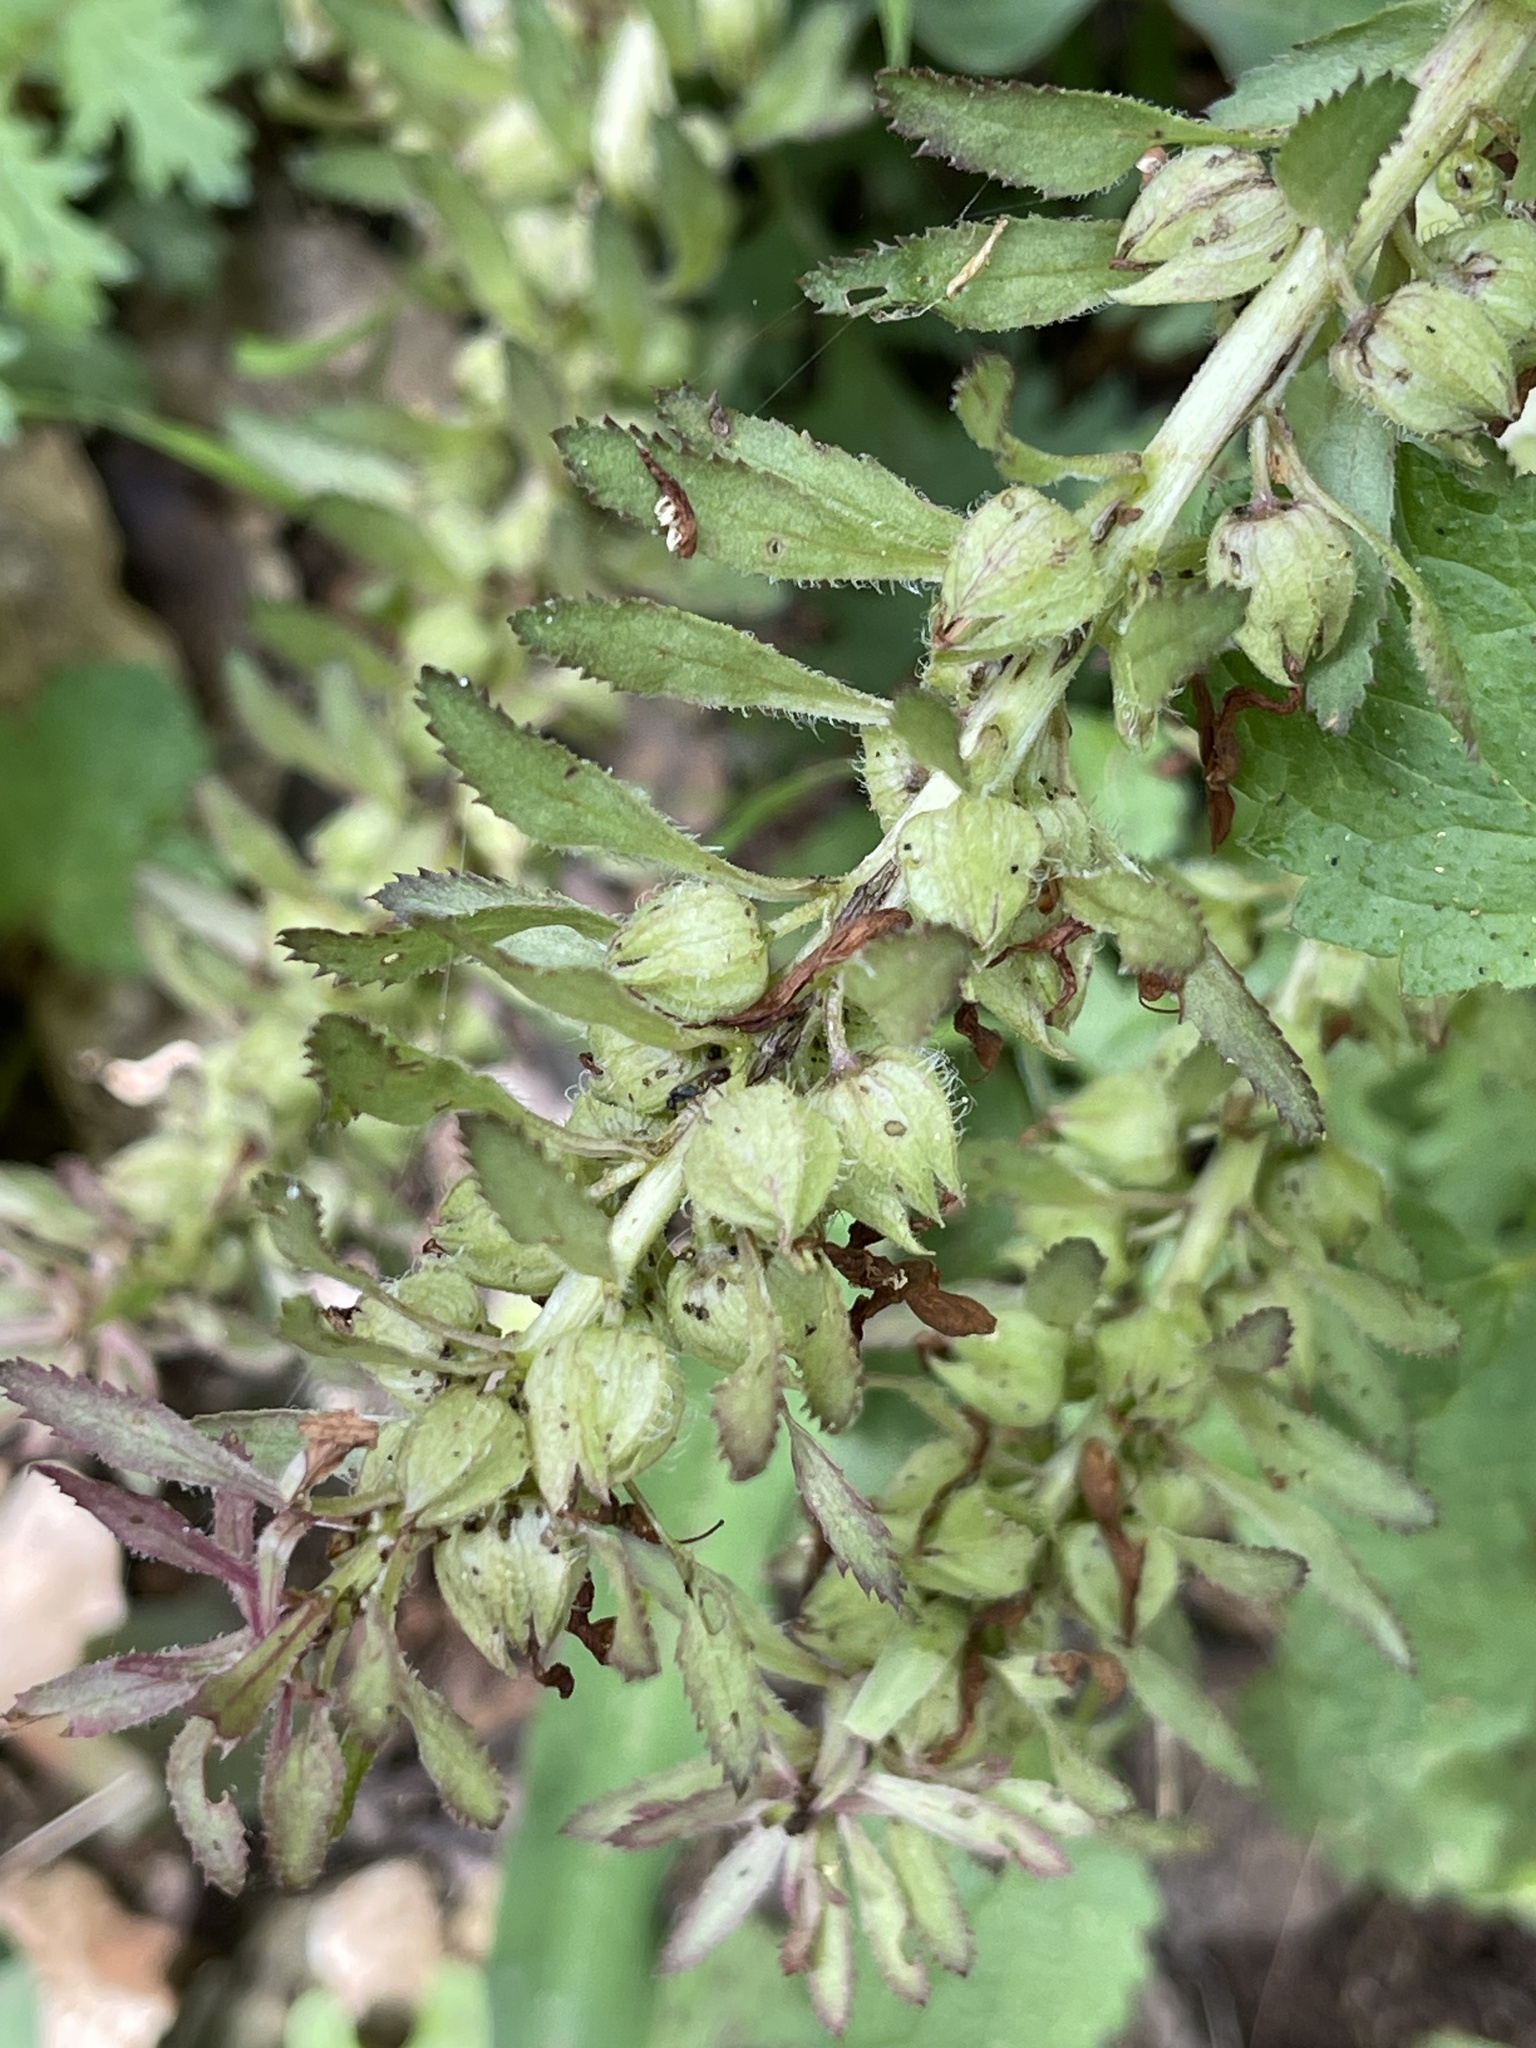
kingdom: Plantae
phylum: Tracheophyta
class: Magnoliopsida
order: Lamiales
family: Orobanchaceae
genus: Pedicularis
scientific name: Pedicularis densiflora
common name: Indian warrior
